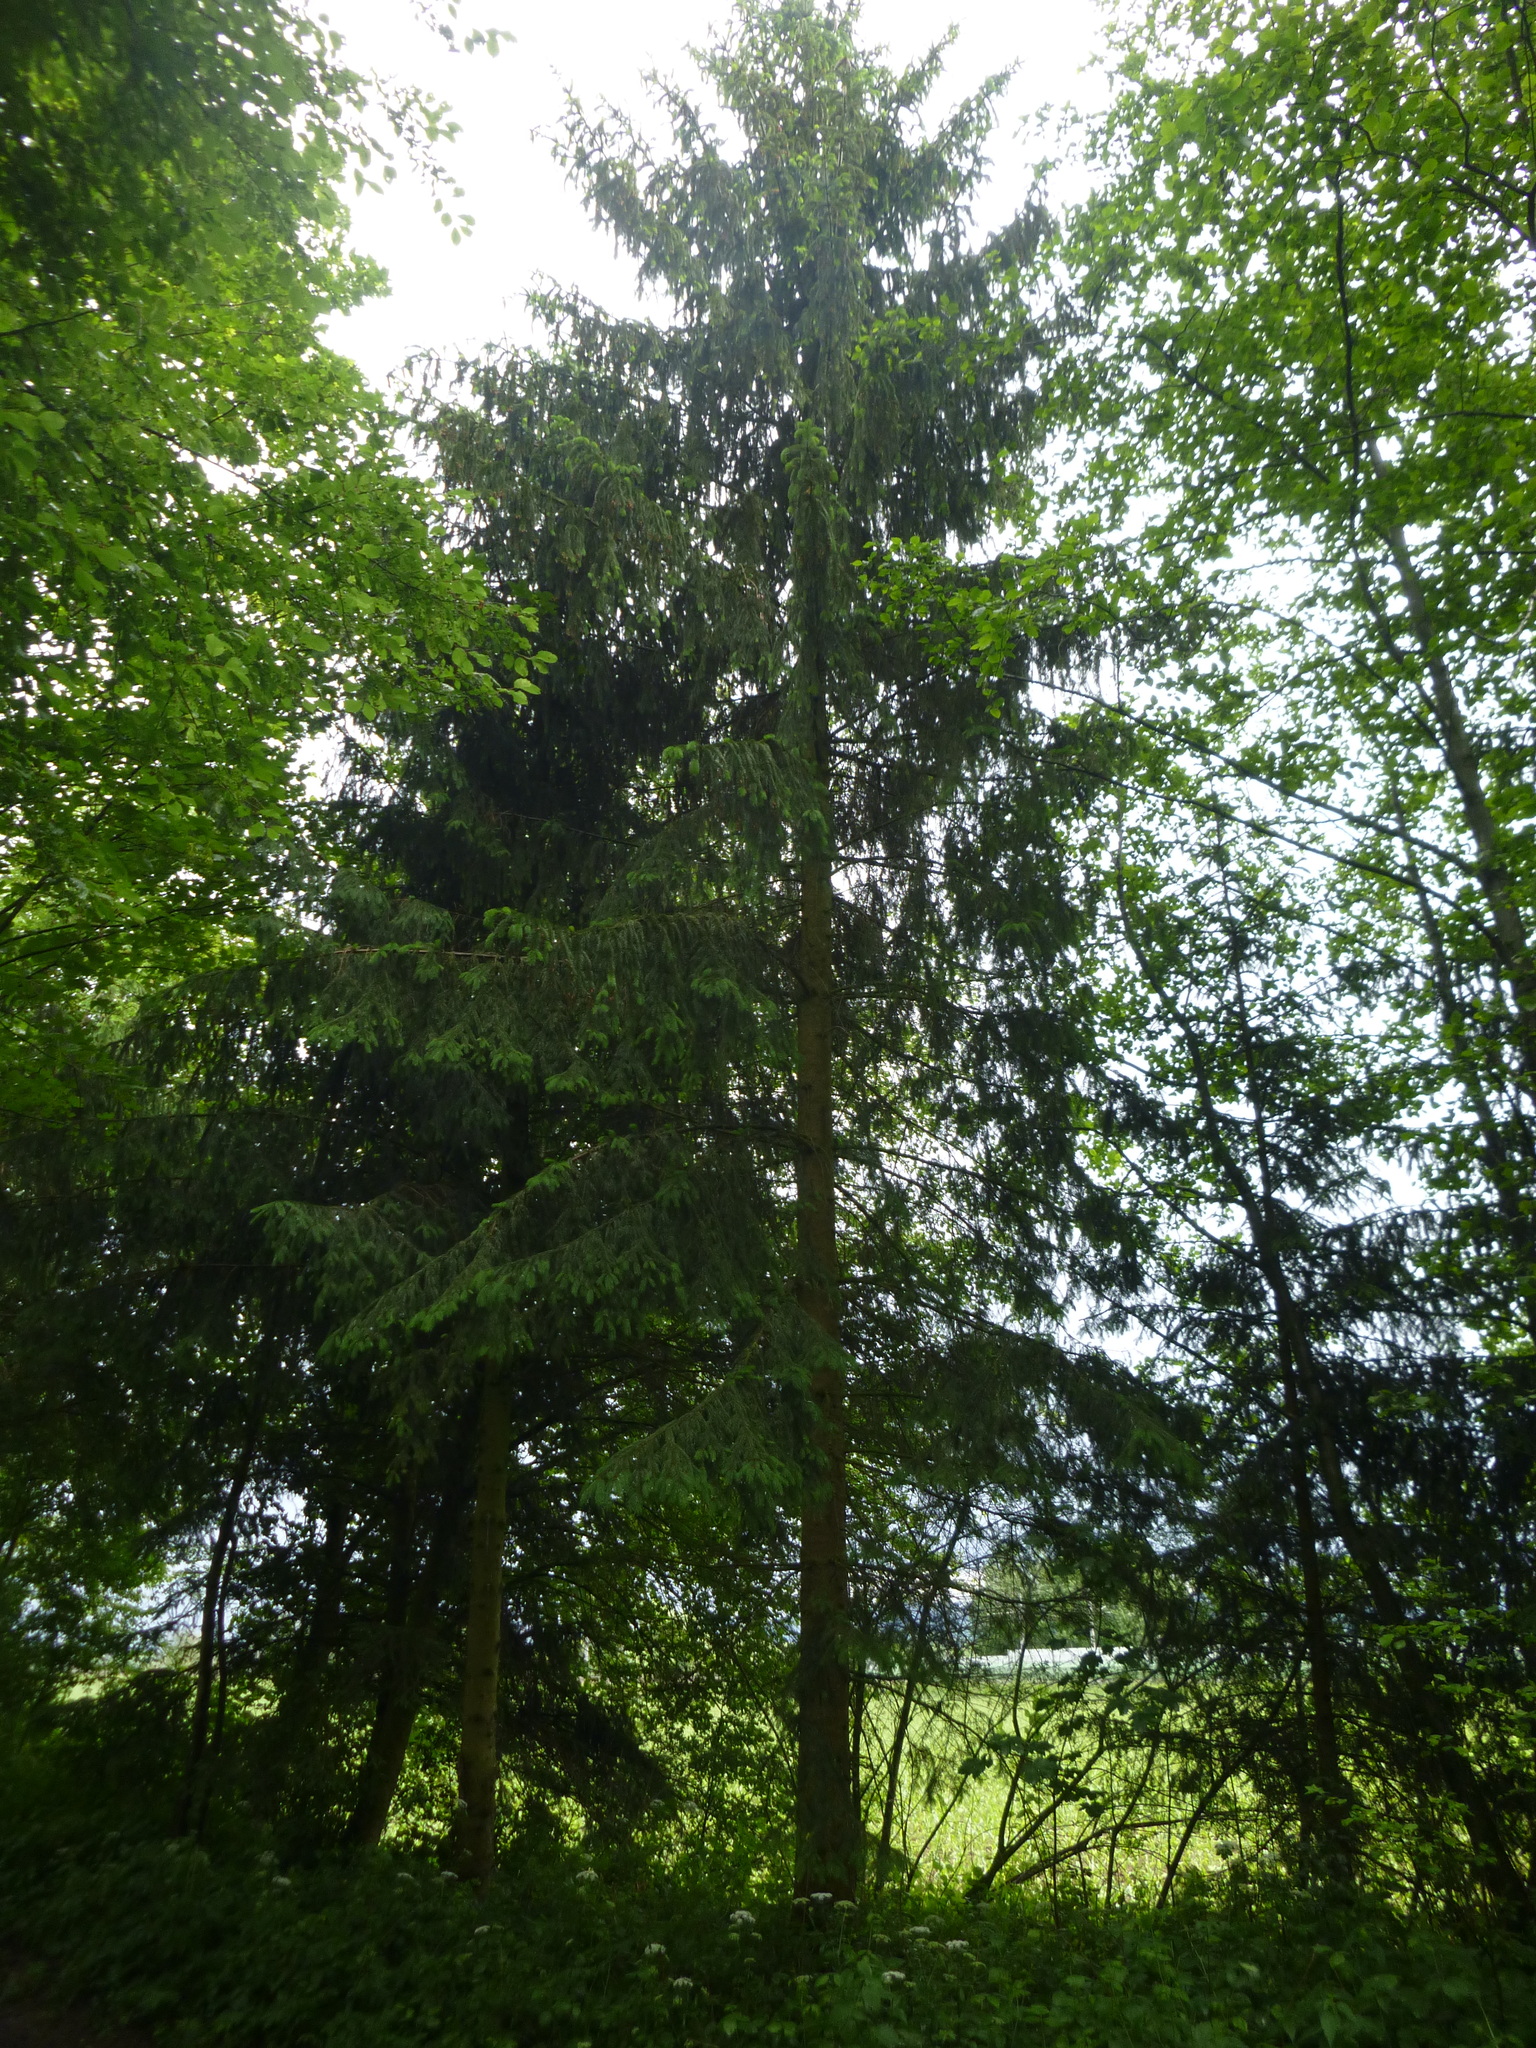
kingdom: Plantae
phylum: Tracheophyta
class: Pinopsida
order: Pinales
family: Pinaceae
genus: Picea
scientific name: Picea abies
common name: Norway spruce
